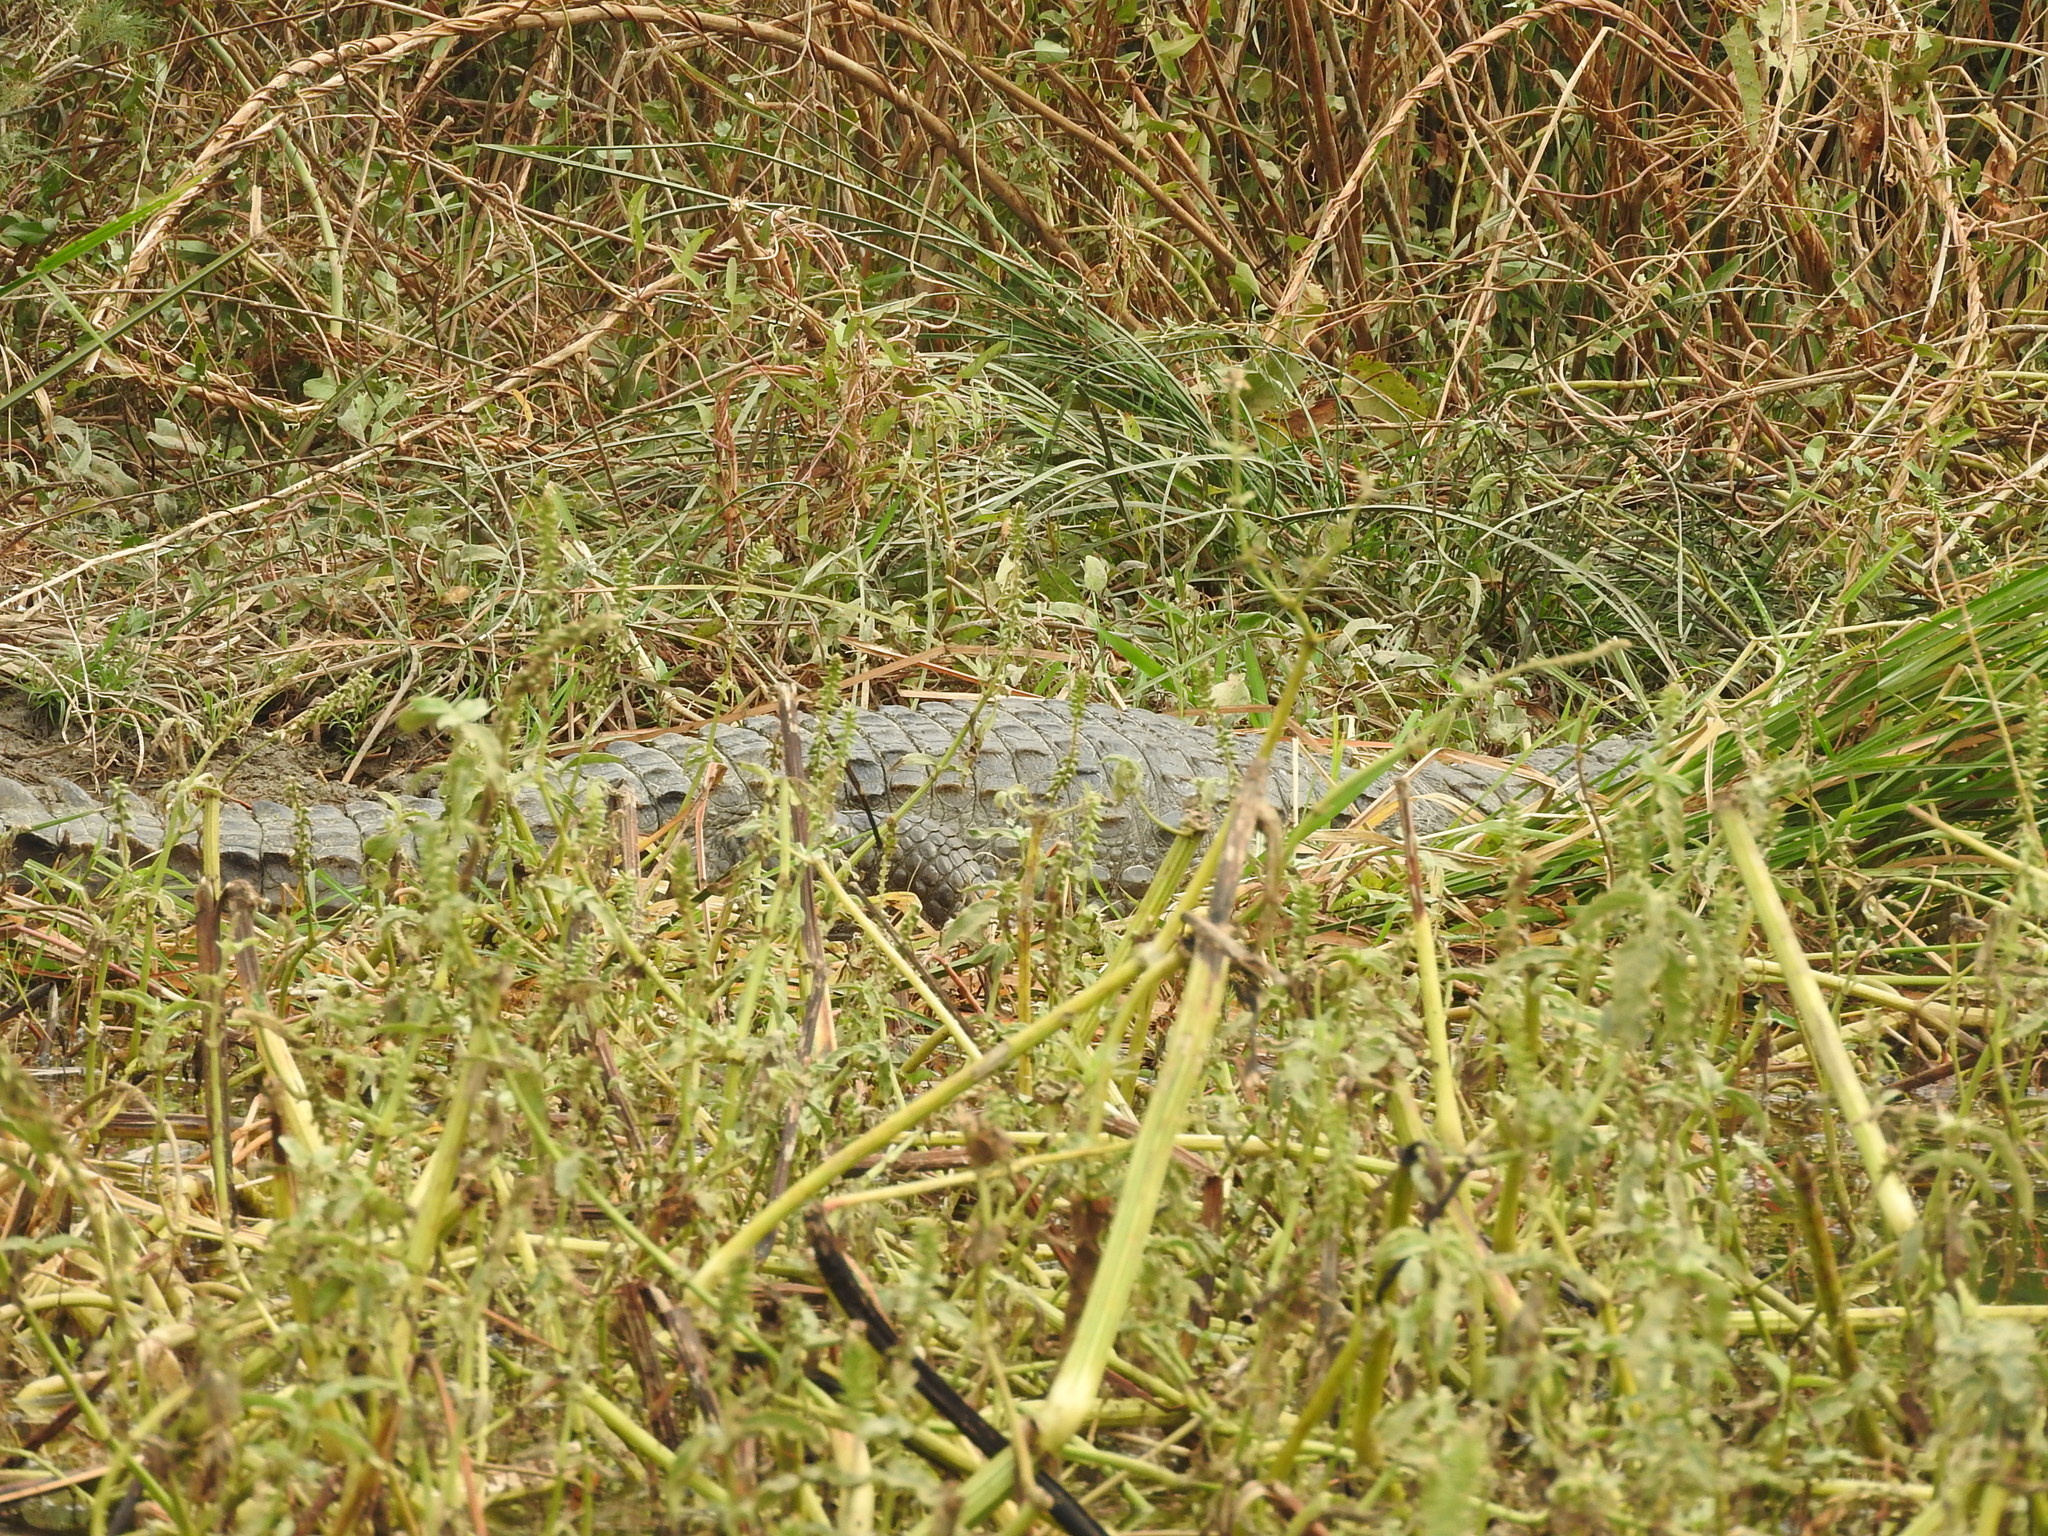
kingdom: Animalia
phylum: Chordata
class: Crocodylia
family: Crocodylidae
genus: Crocodylus
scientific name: Crocodylus suchus
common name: West african crocodile
